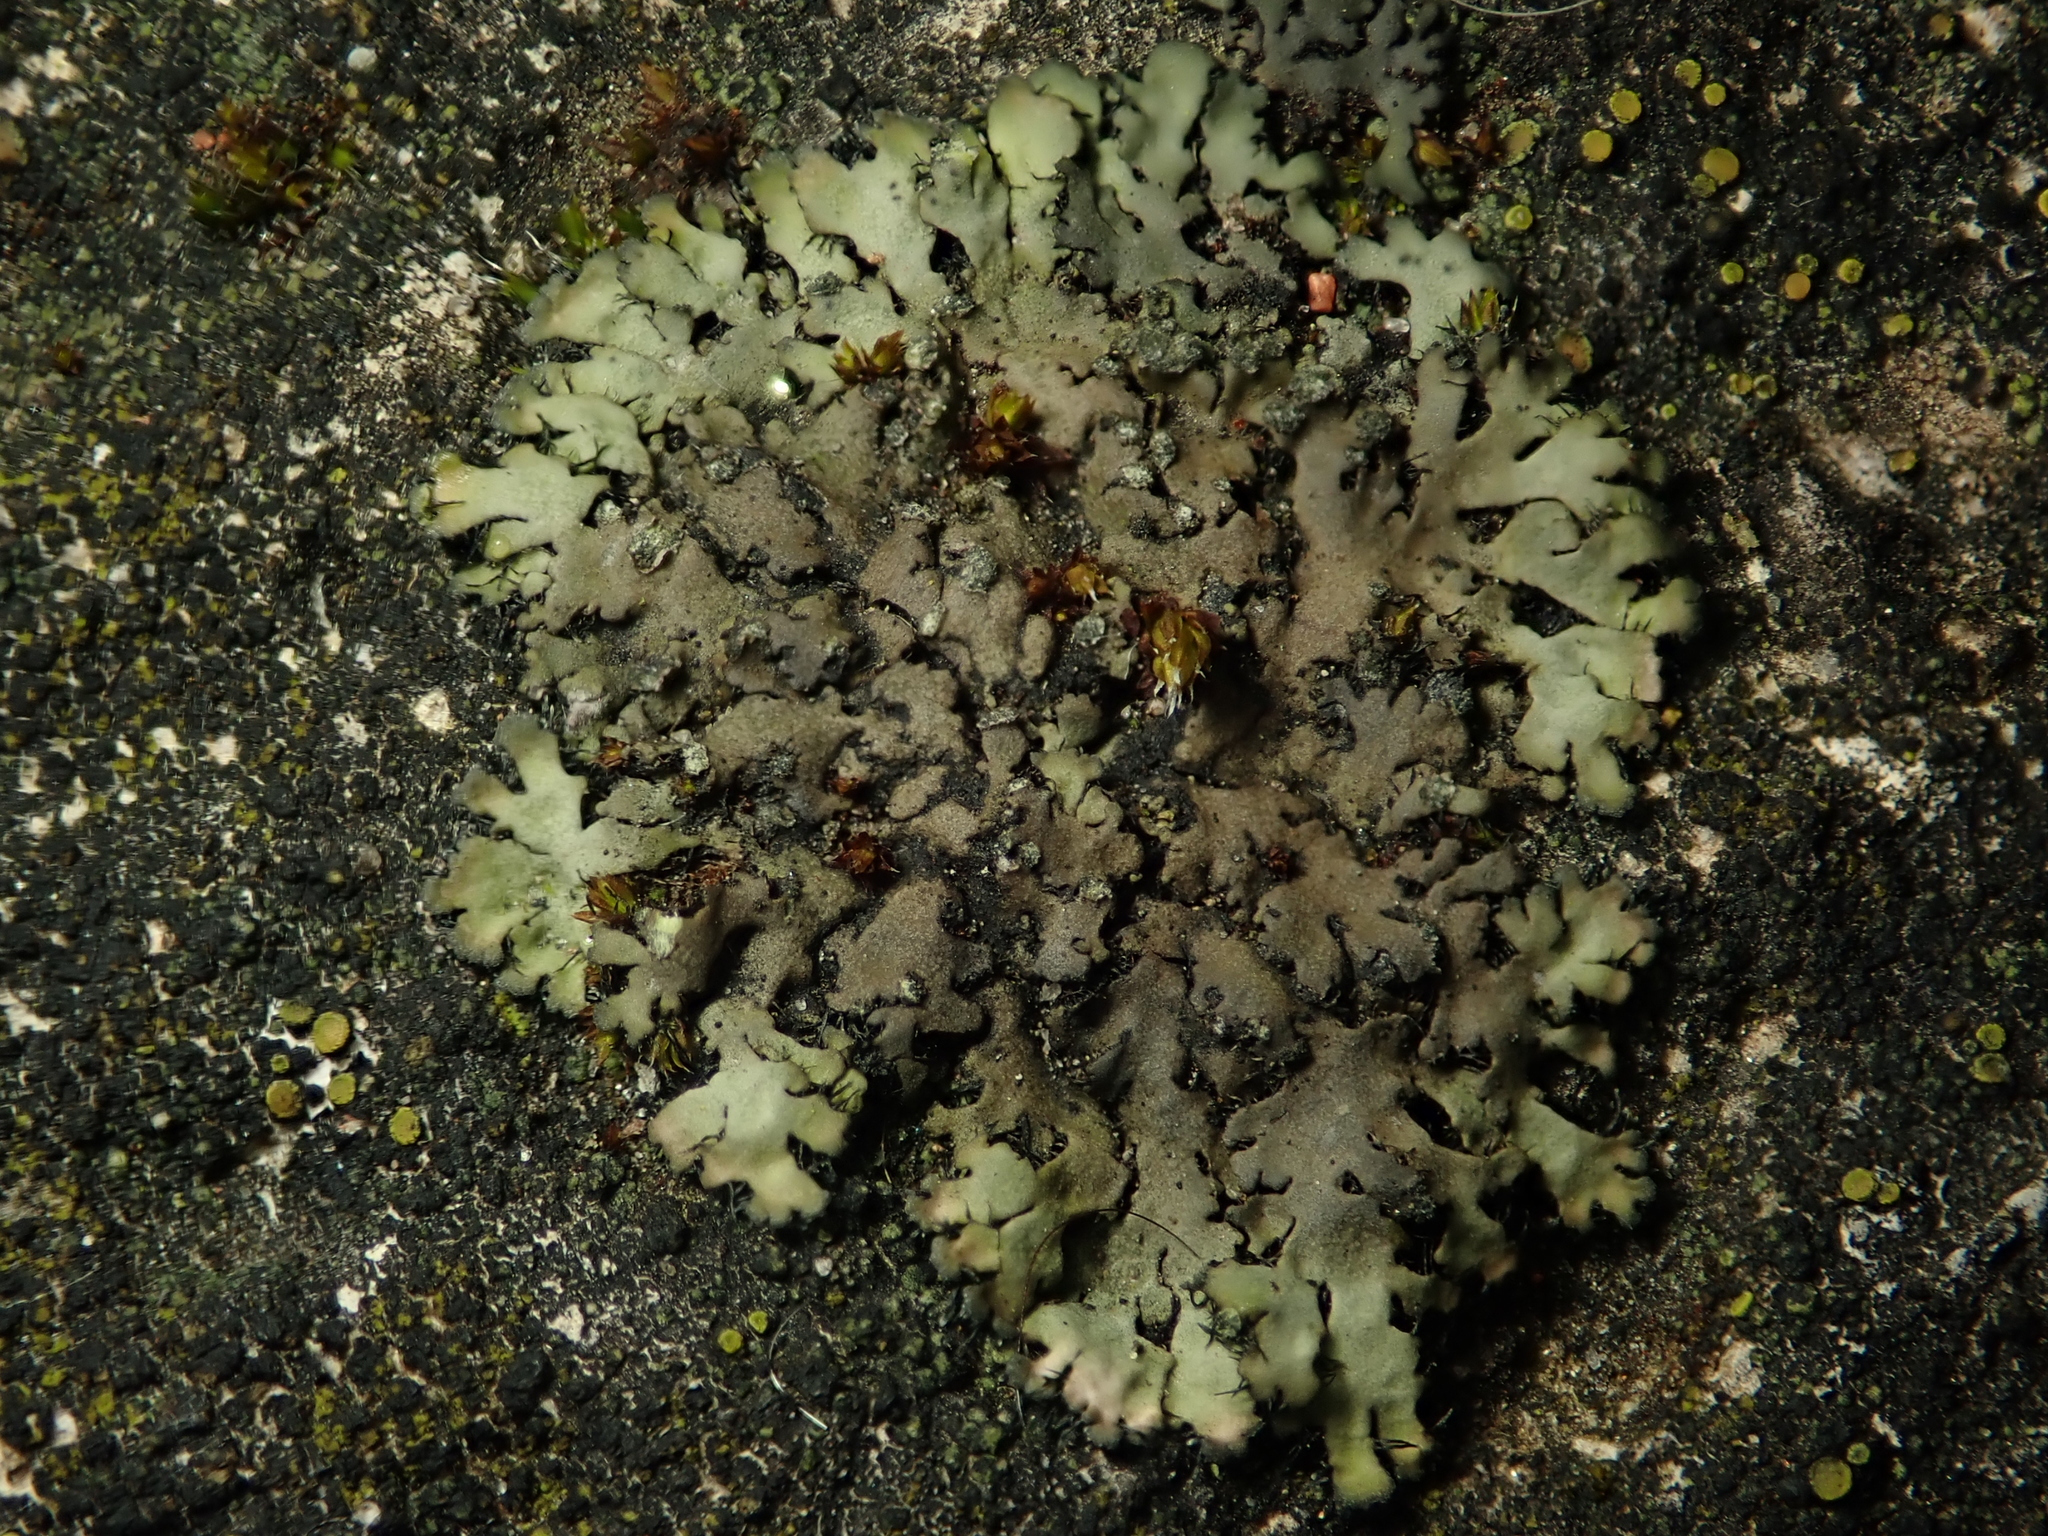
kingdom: Fungi
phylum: Ascomycota
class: Lecanoromycetes
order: Caliciales
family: Physciaceae
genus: Phaeophyscia
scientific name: Phaeophyscia orbicularis
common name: Mealy shadow lichen
